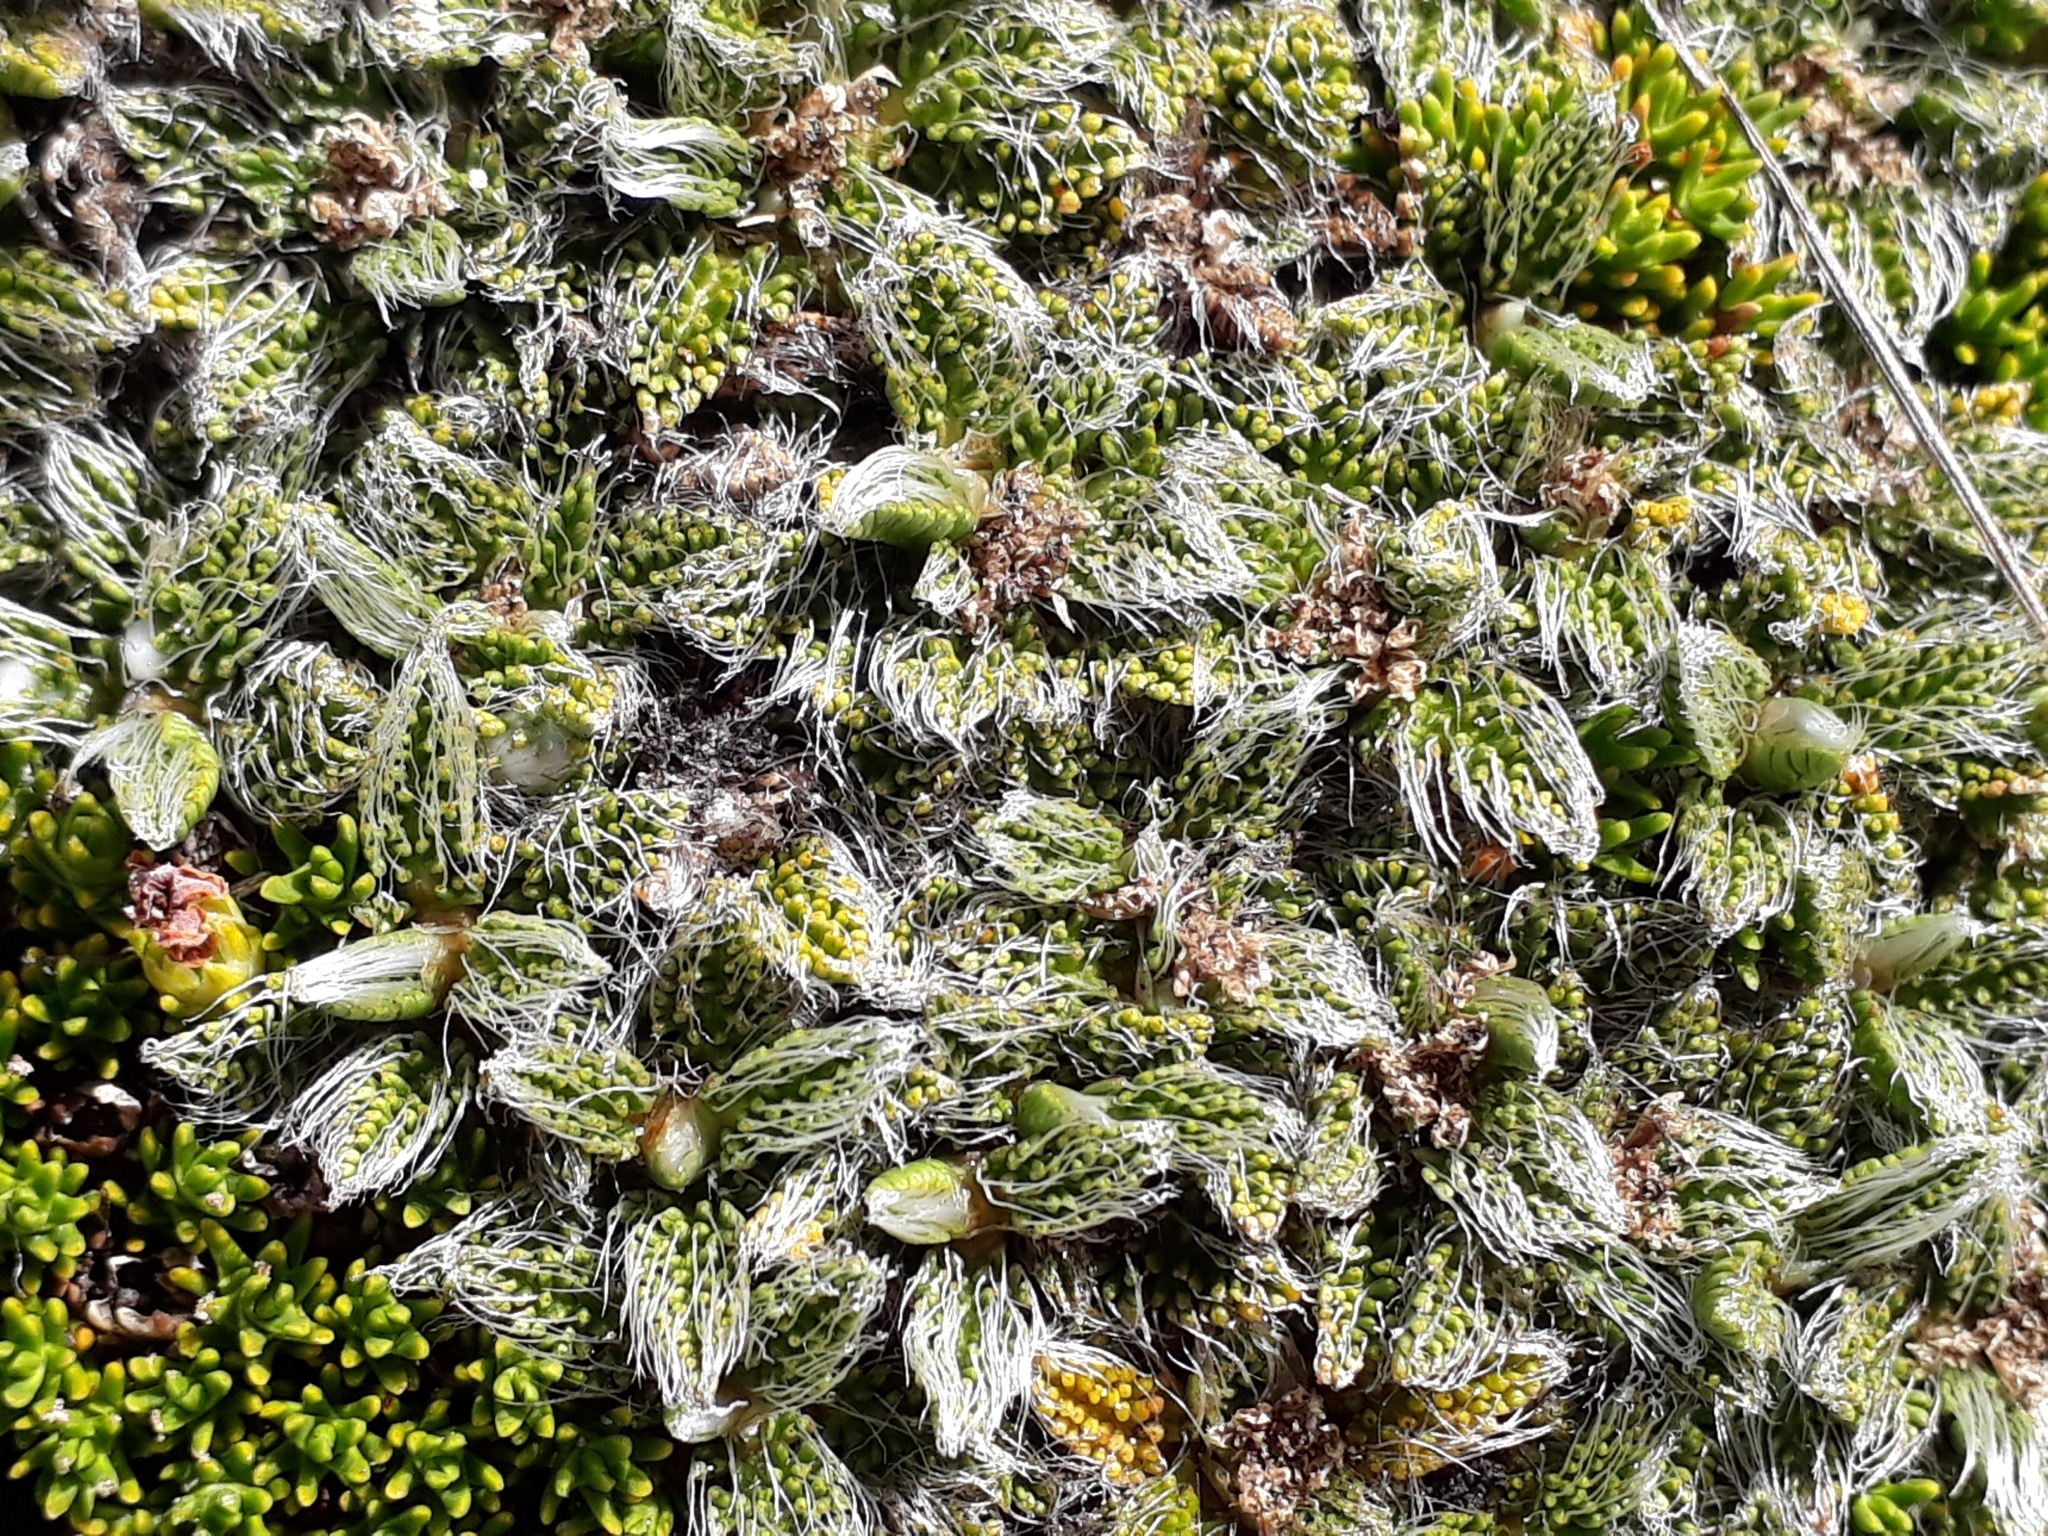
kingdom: Plantae
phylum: Tracheophyta
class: Magnoliopsida
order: Apiales
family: Apiaceae
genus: Anisotome
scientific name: Anisotome imbricata
